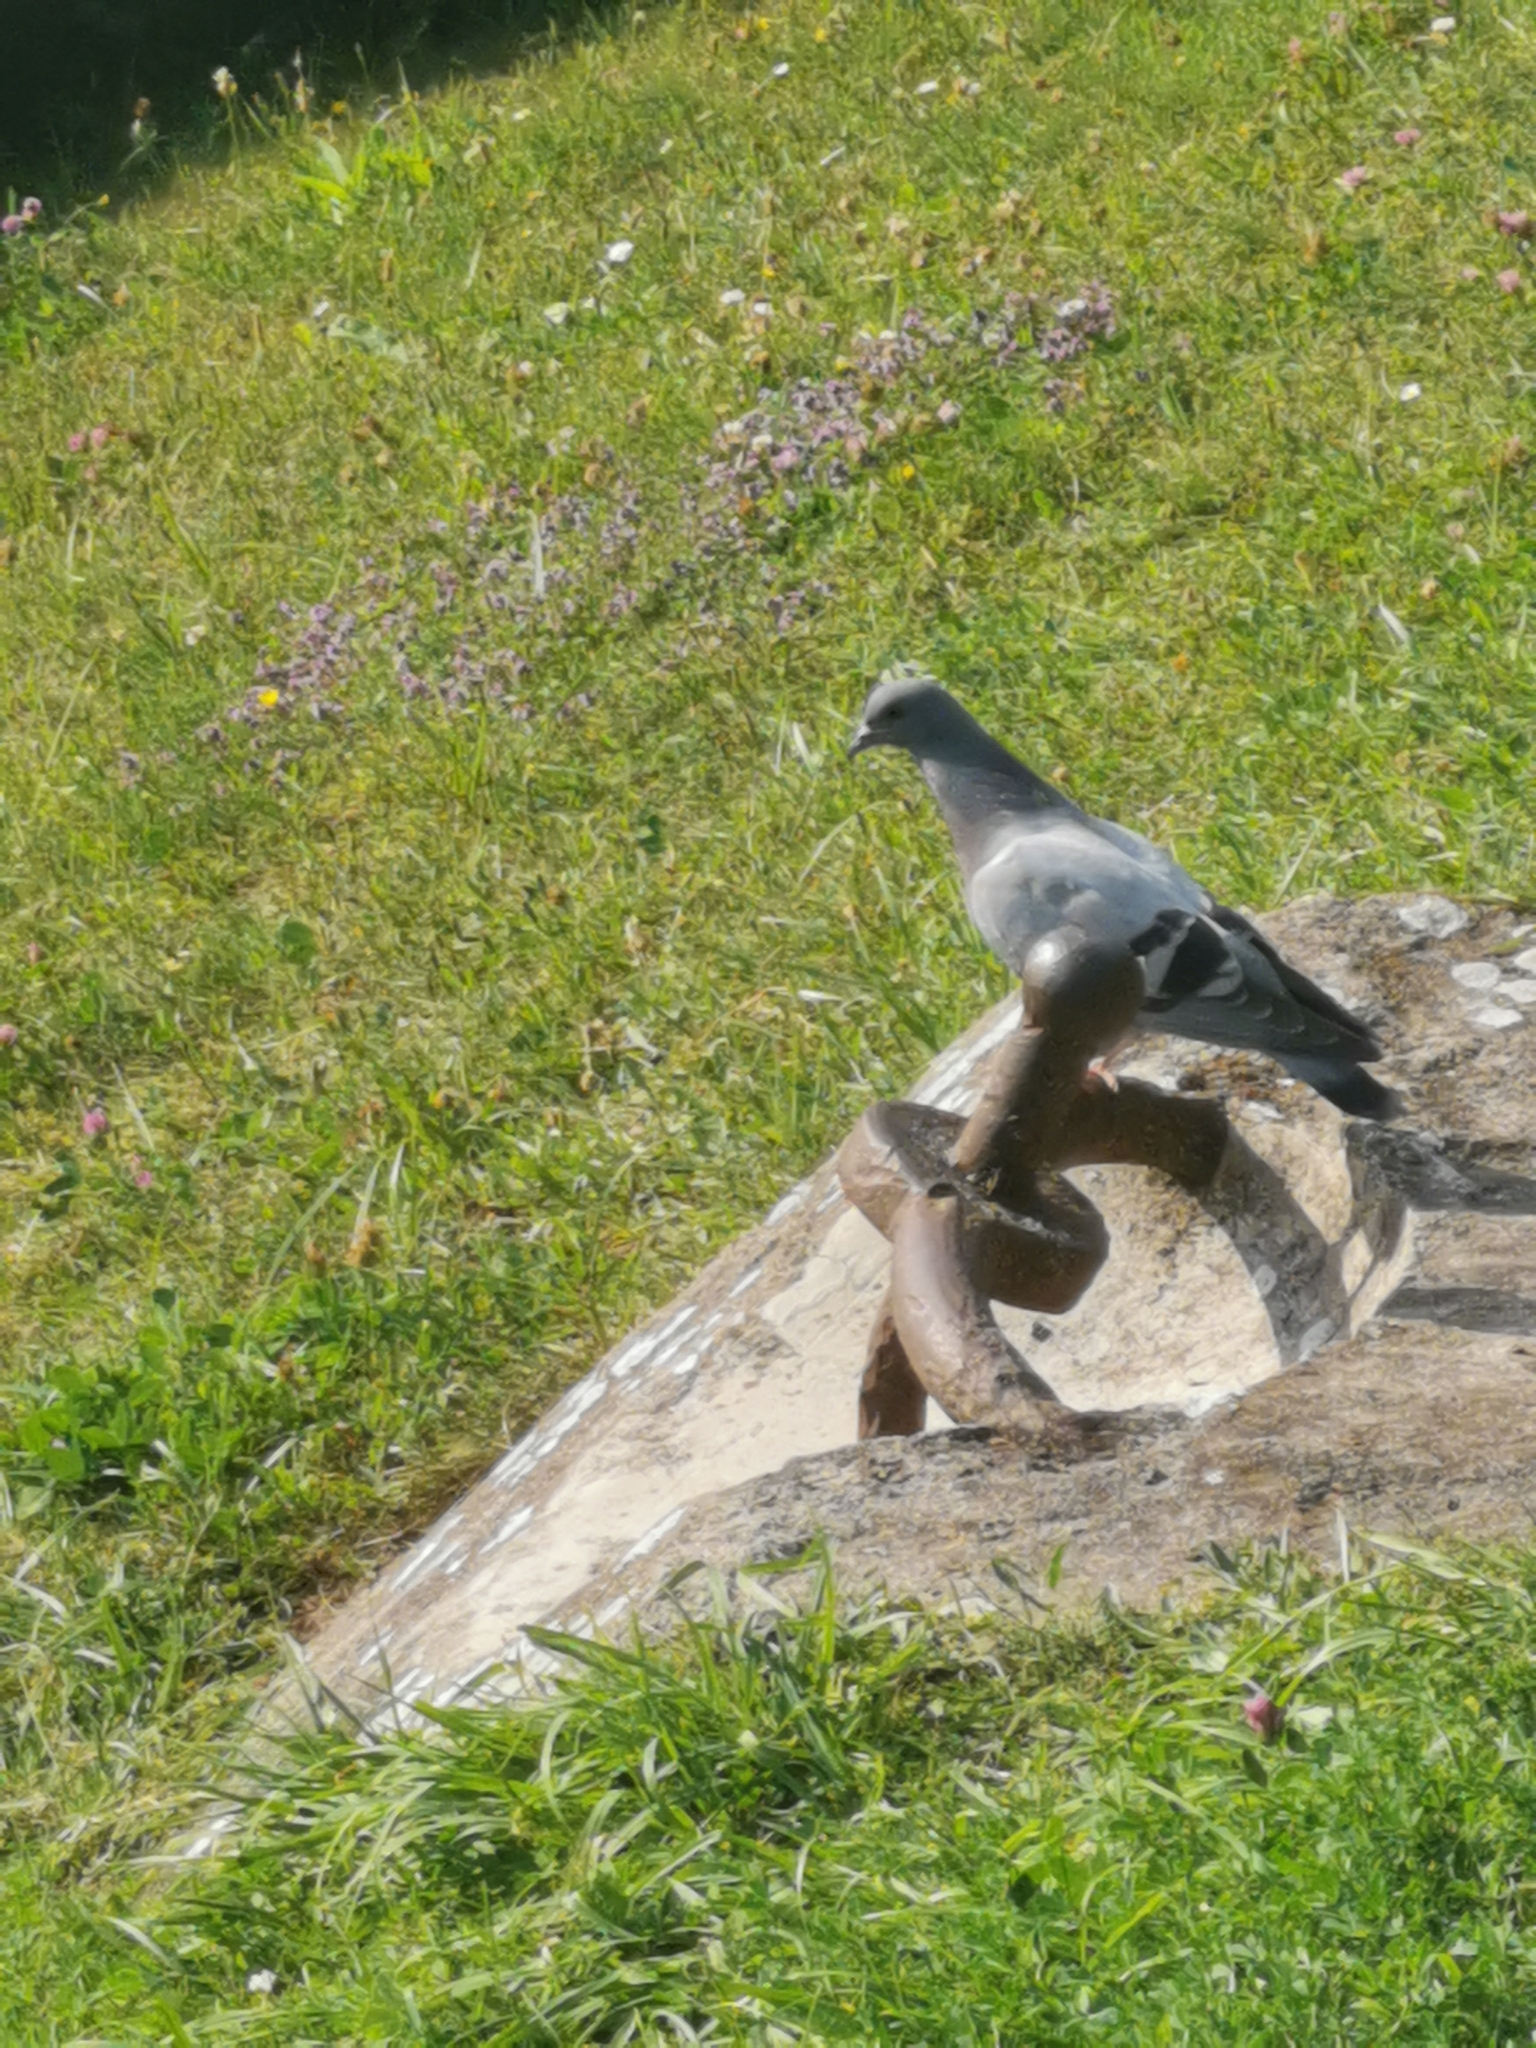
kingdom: Animalia
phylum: Chordata
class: Aves
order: Columbiformes
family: Columbidae
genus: Columba
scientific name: Columba livia
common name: Rock pigeon
